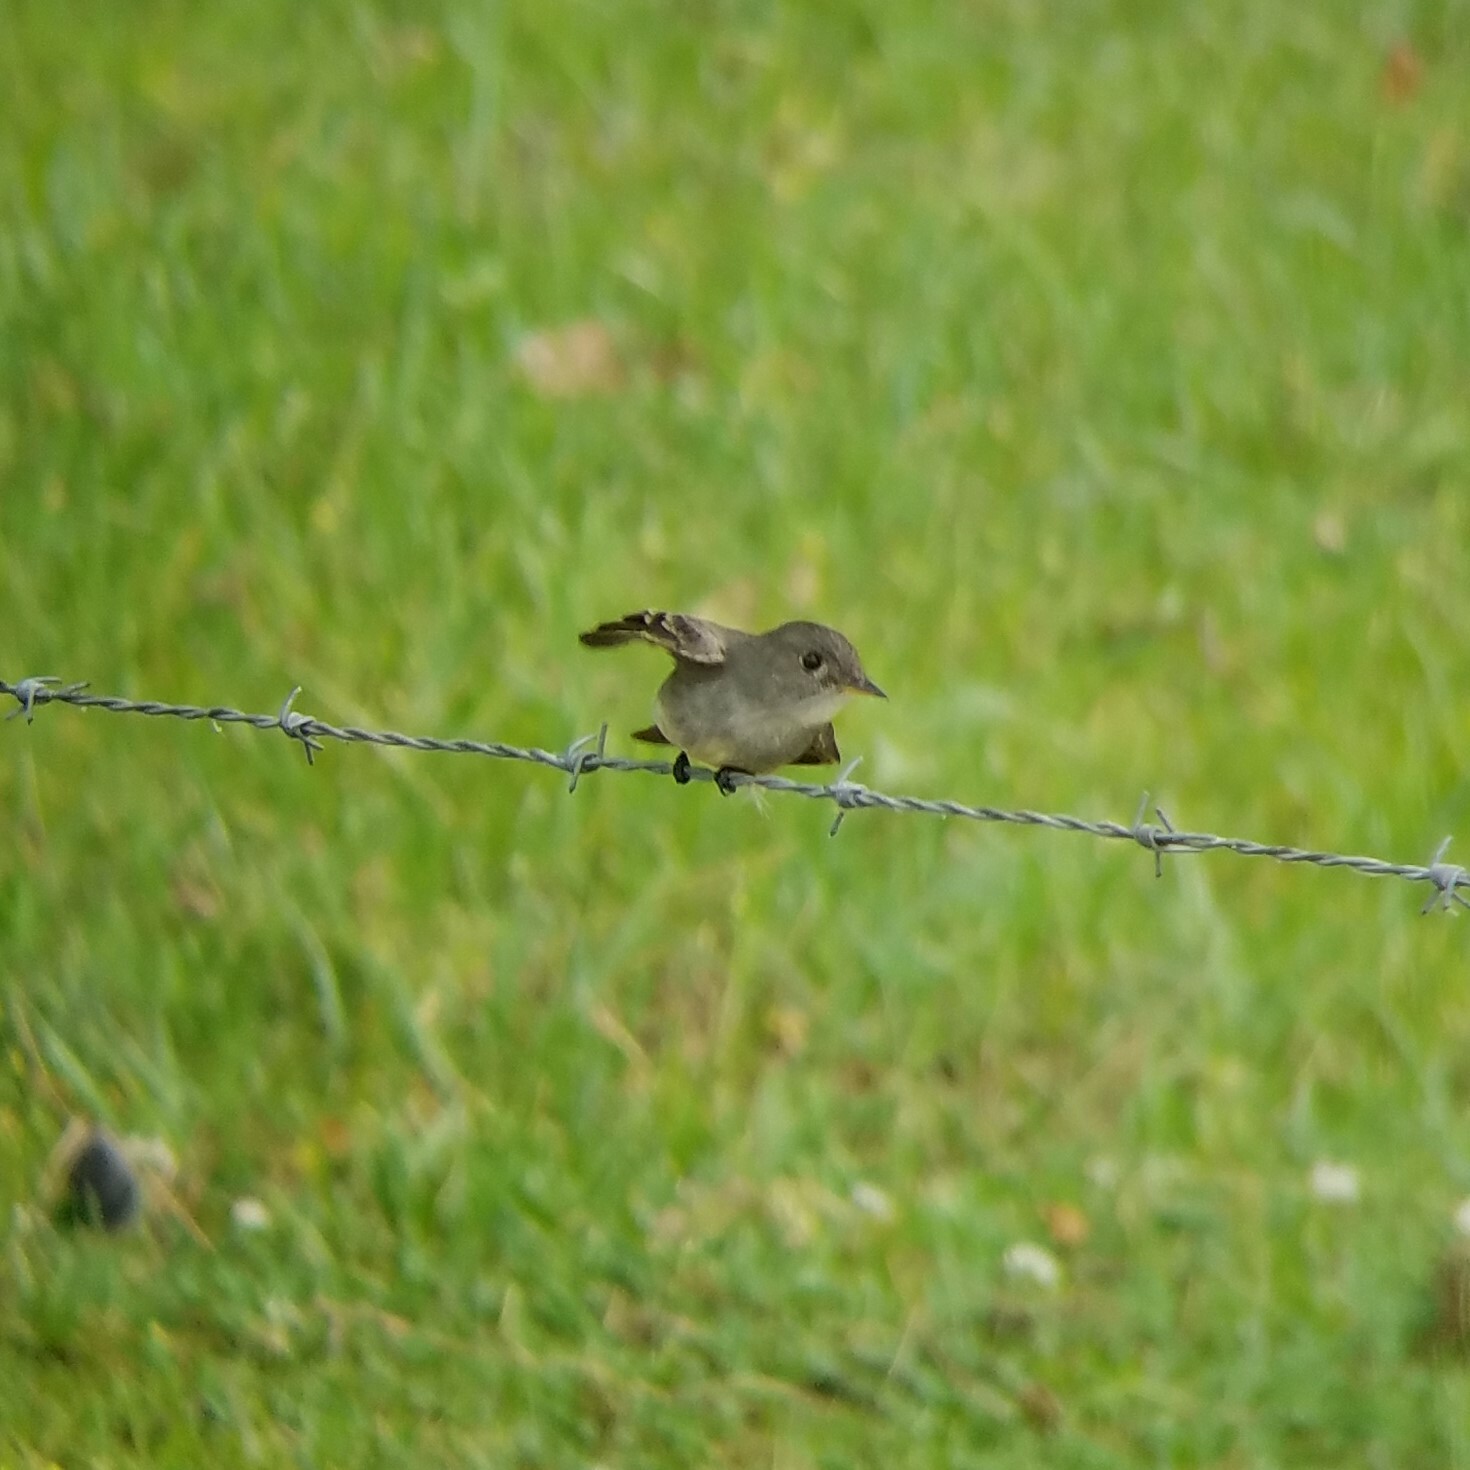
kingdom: Animalia
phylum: Chordata
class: Aves
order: Passeriformes
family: Tyrannidae
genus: Contopus
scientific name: Contopus virens
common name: Eastern wood-pewee
